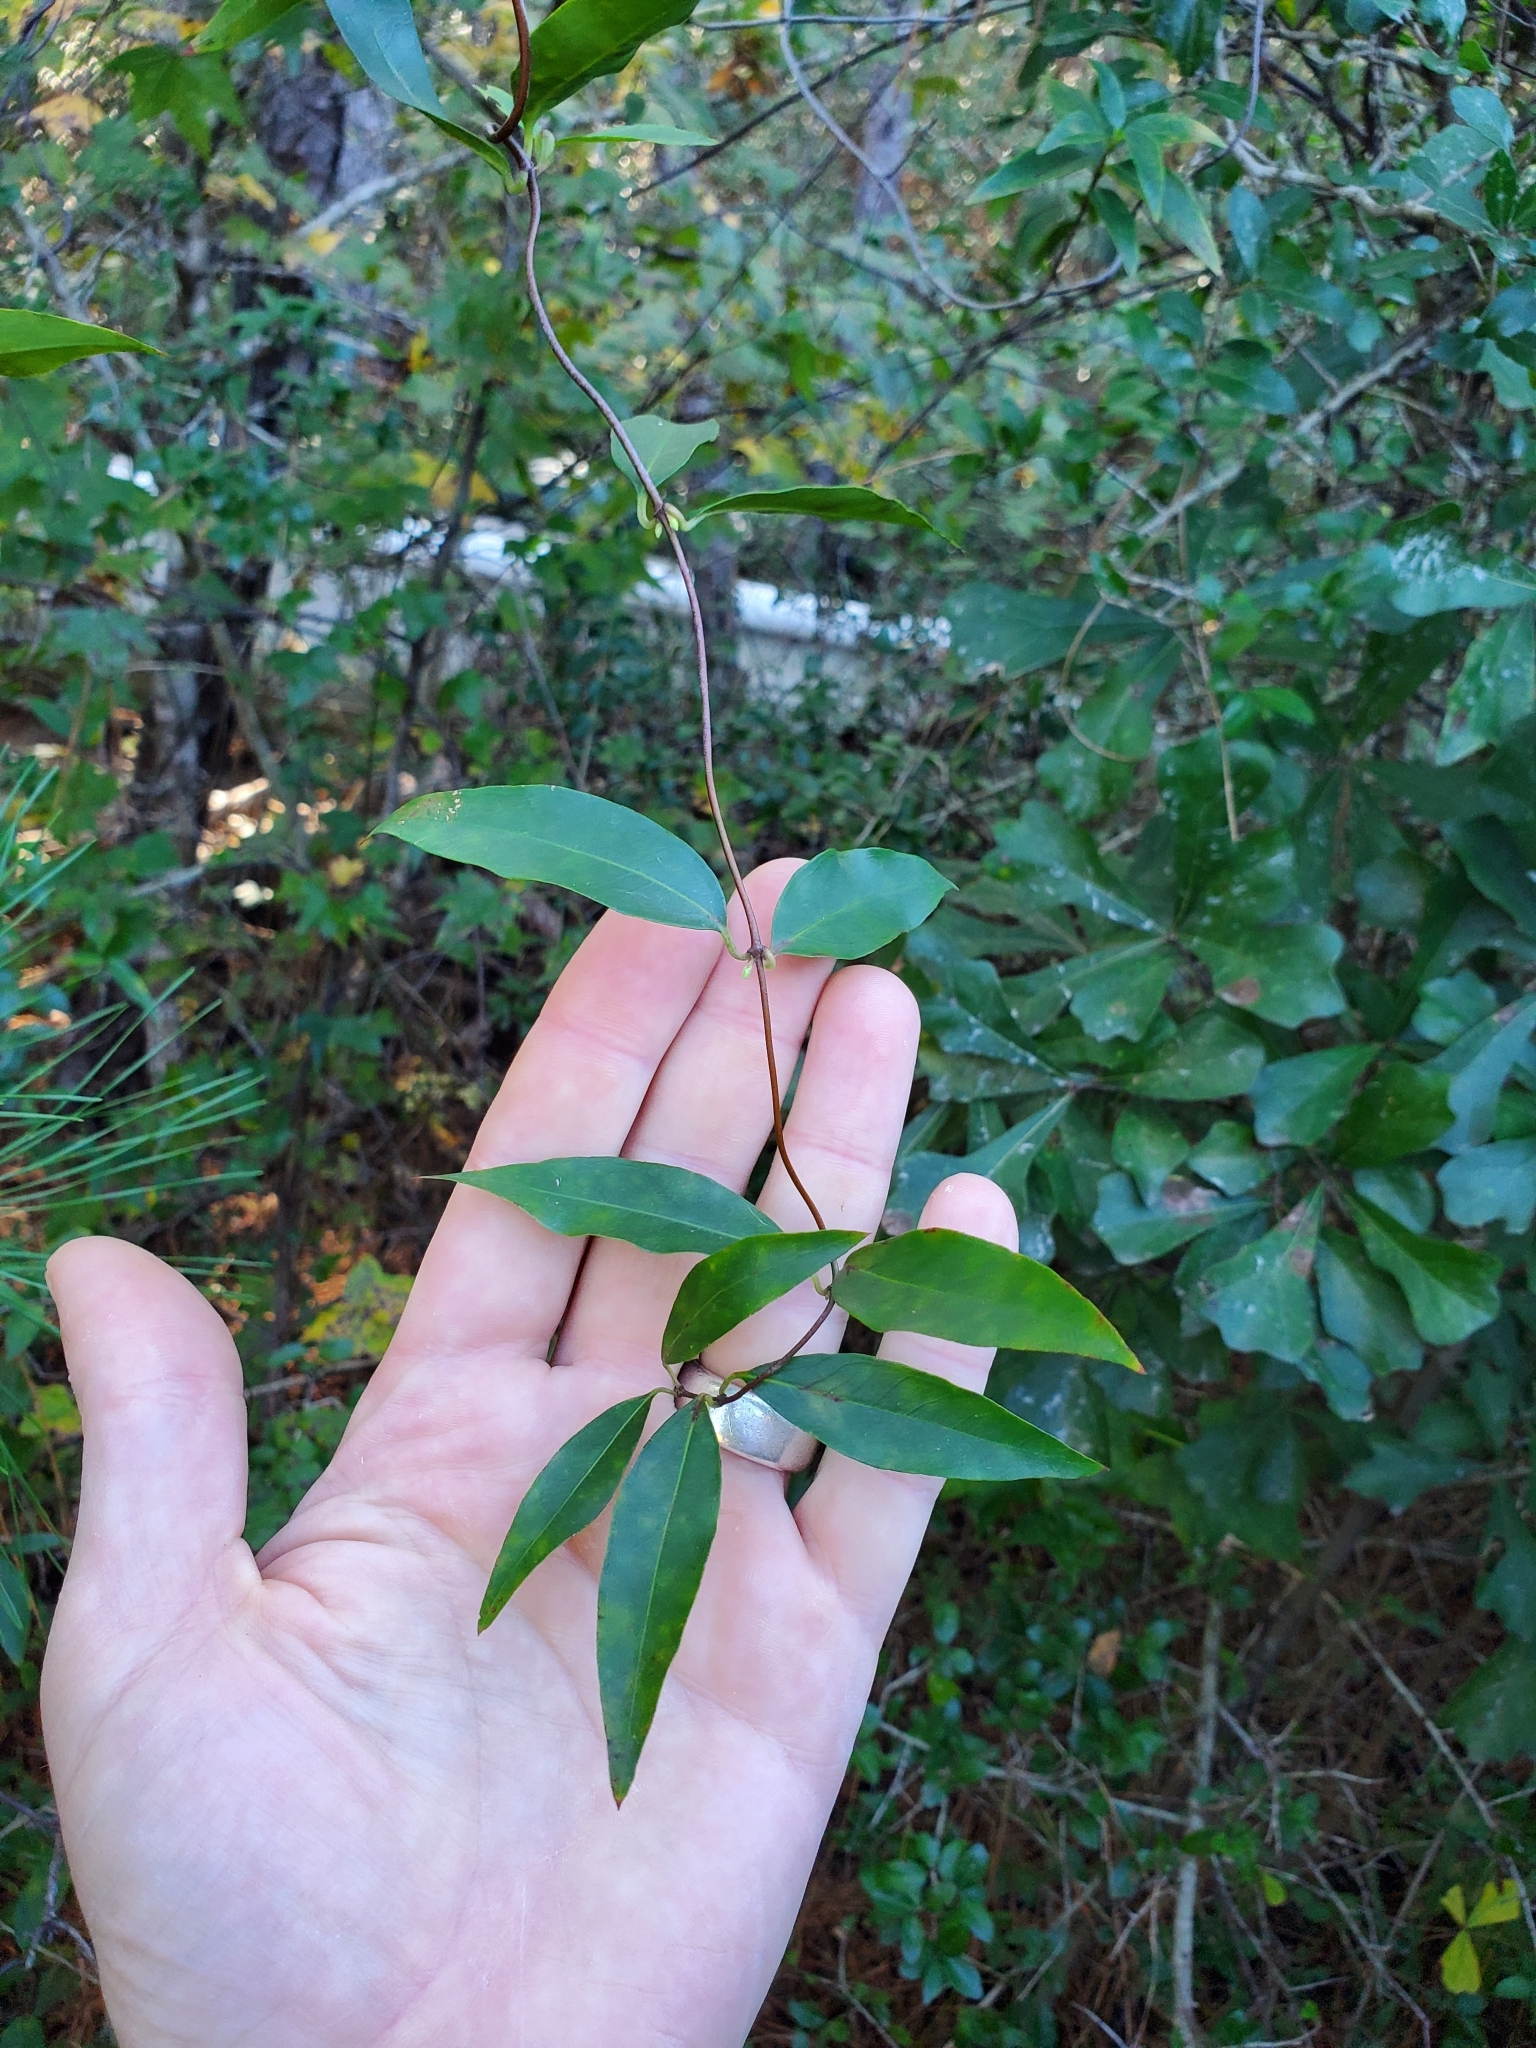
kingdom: Plantae
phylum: Tracheophyta
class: Magnoliopsida
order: Gentianales
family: Gelsemiaceae
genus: Gelsemium
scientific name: Gelsemium sempervirens
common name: Carolina-jasmine
